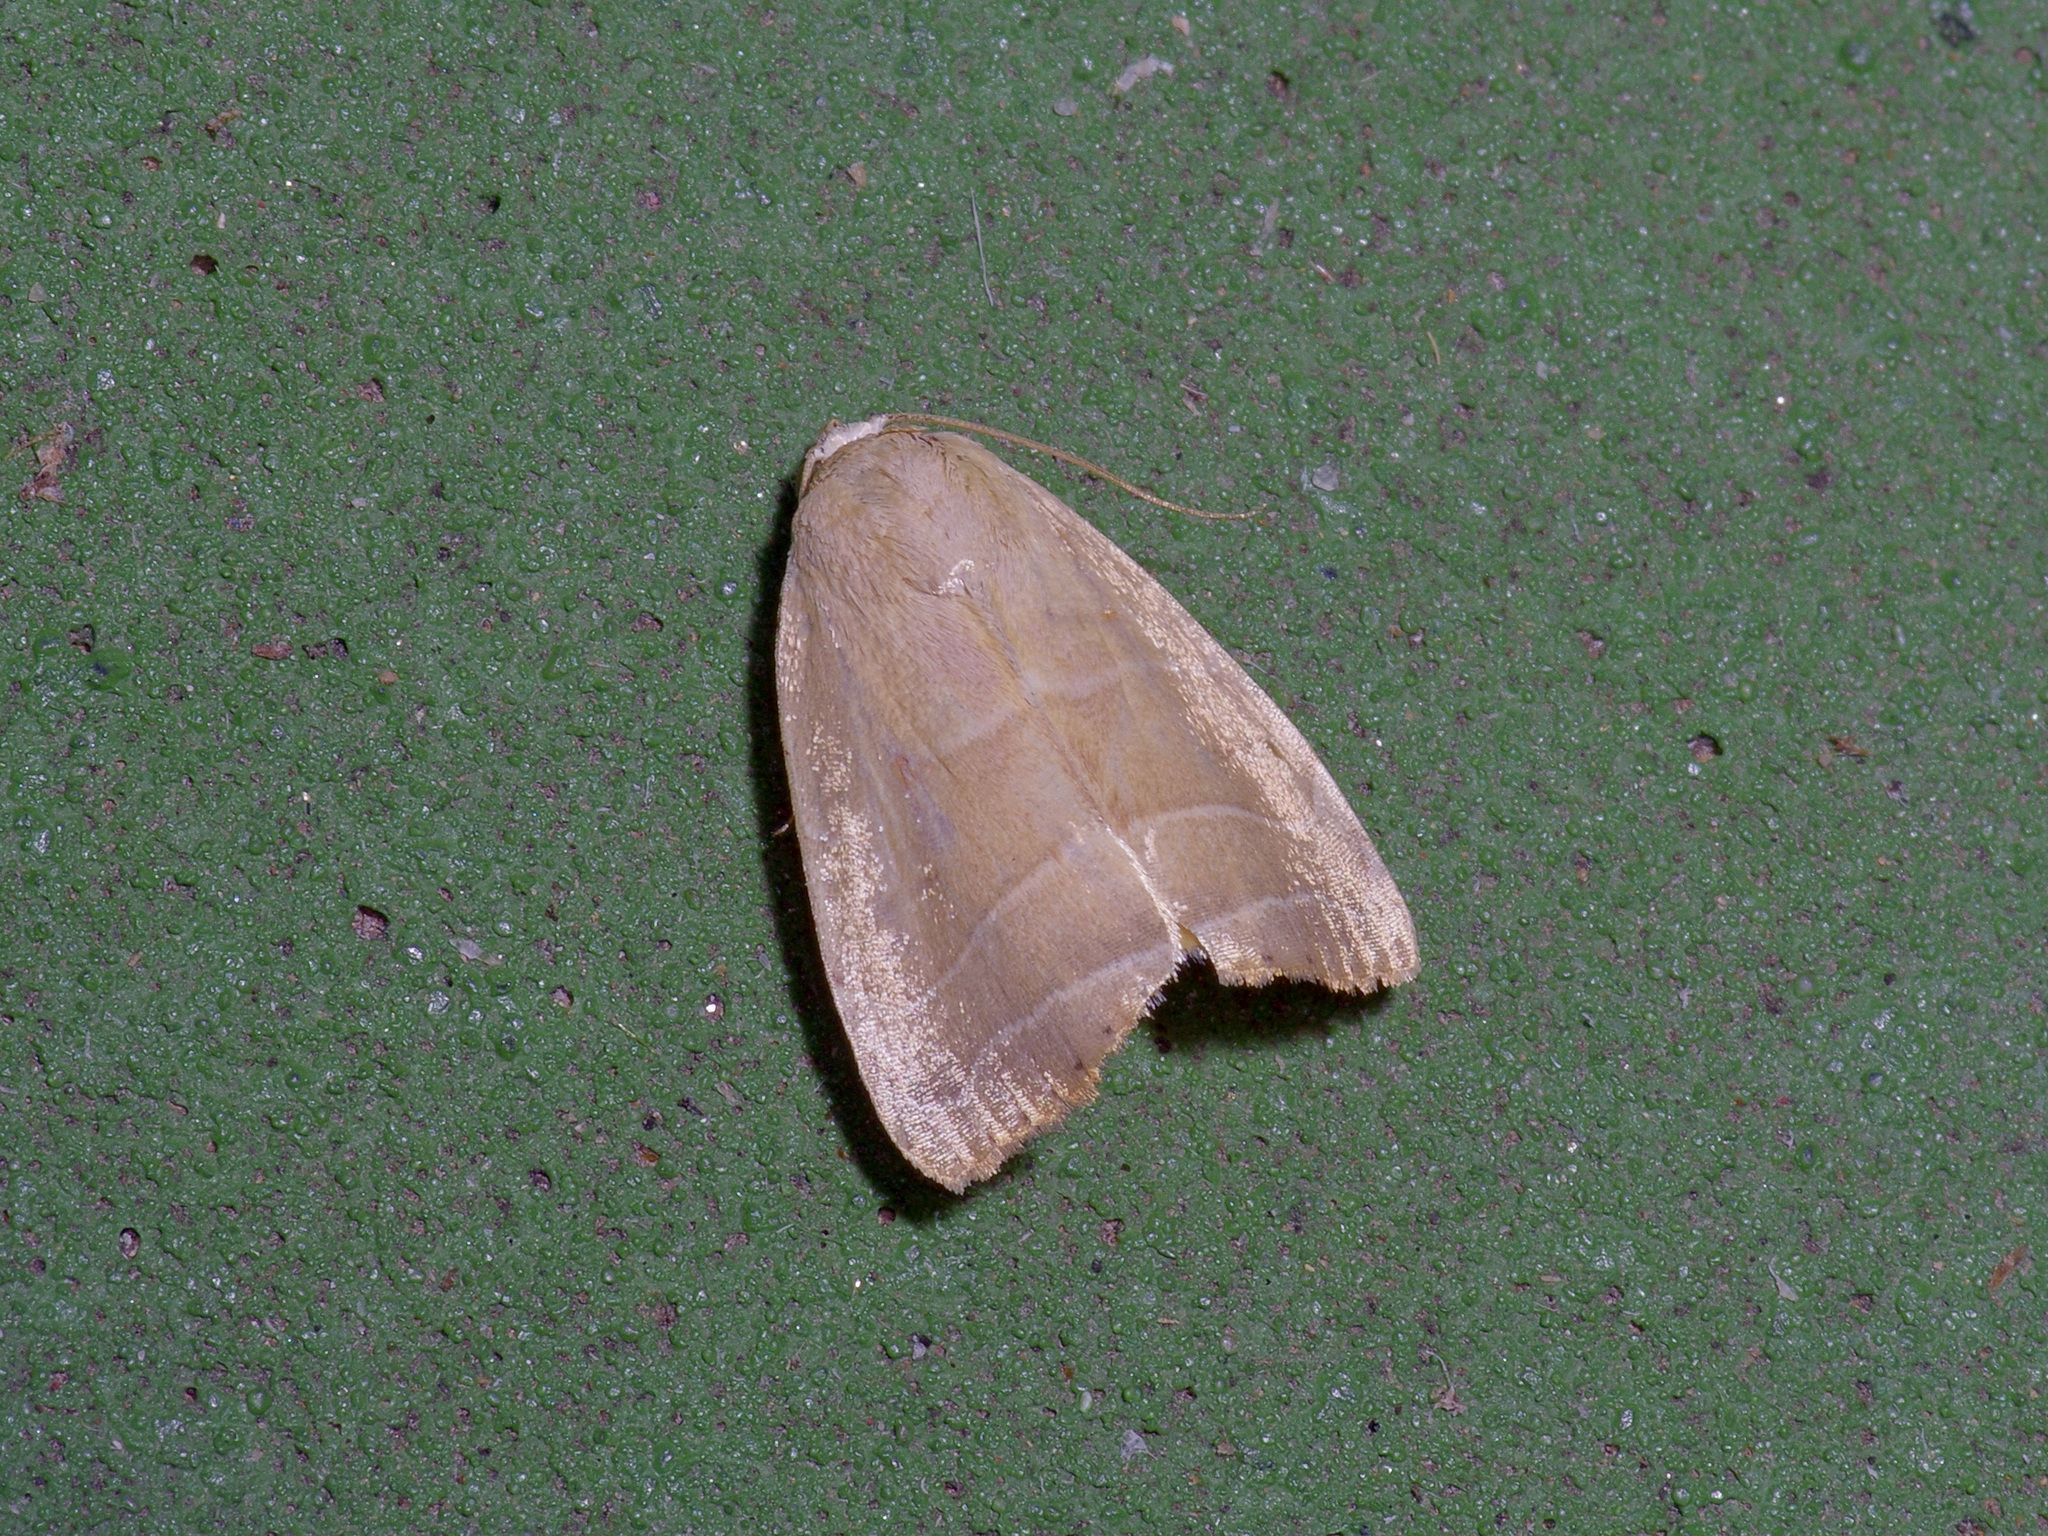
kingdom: Animalia
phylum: Arthropoda
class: Insecta
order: Lepidoptera
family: Noctuidae
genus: Bagisara
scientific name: Bagisara rectifascia
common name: Straight lined mallow moth
